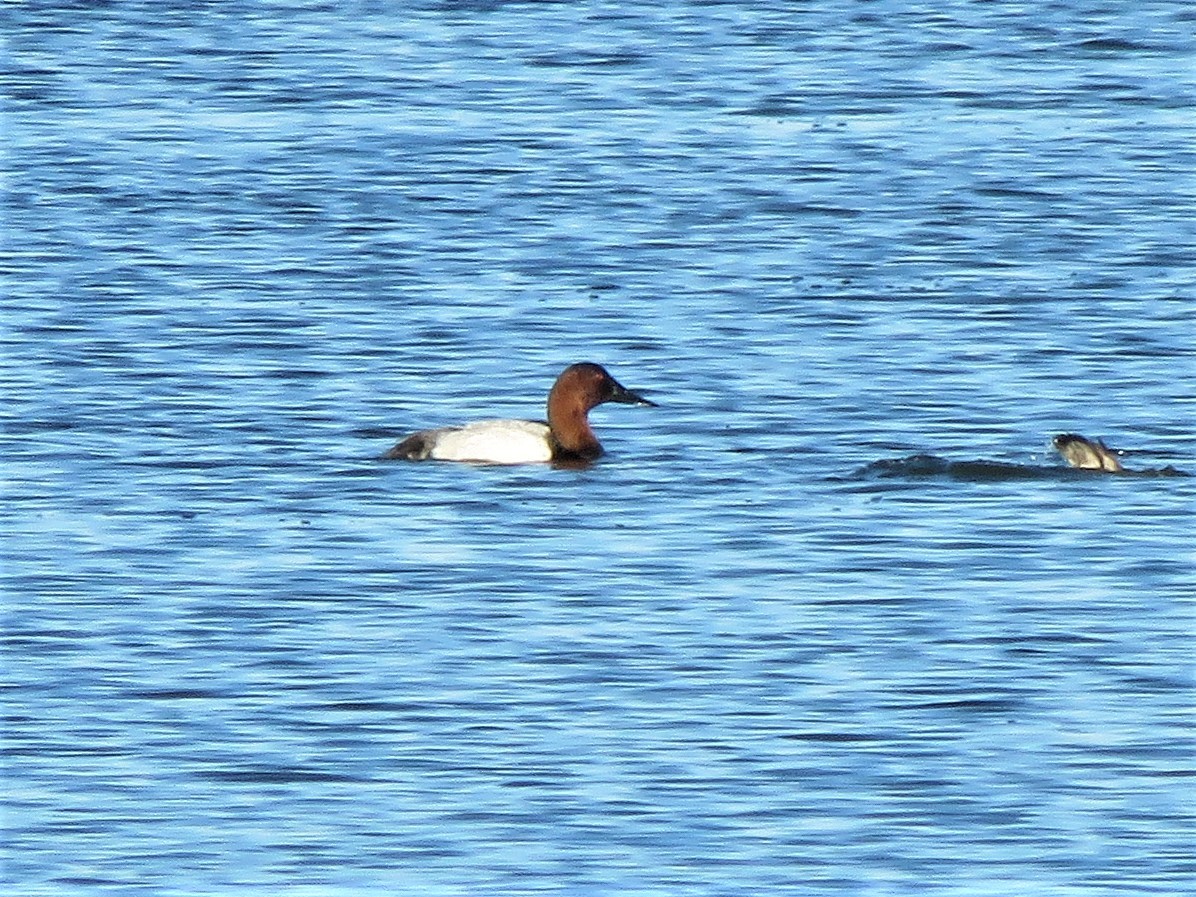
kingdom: Animalia
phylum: Chordata
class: Aves
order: Anseriformes
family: Anatidae
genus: Aythya
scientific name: Aythya valisineria
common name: Canvasback
